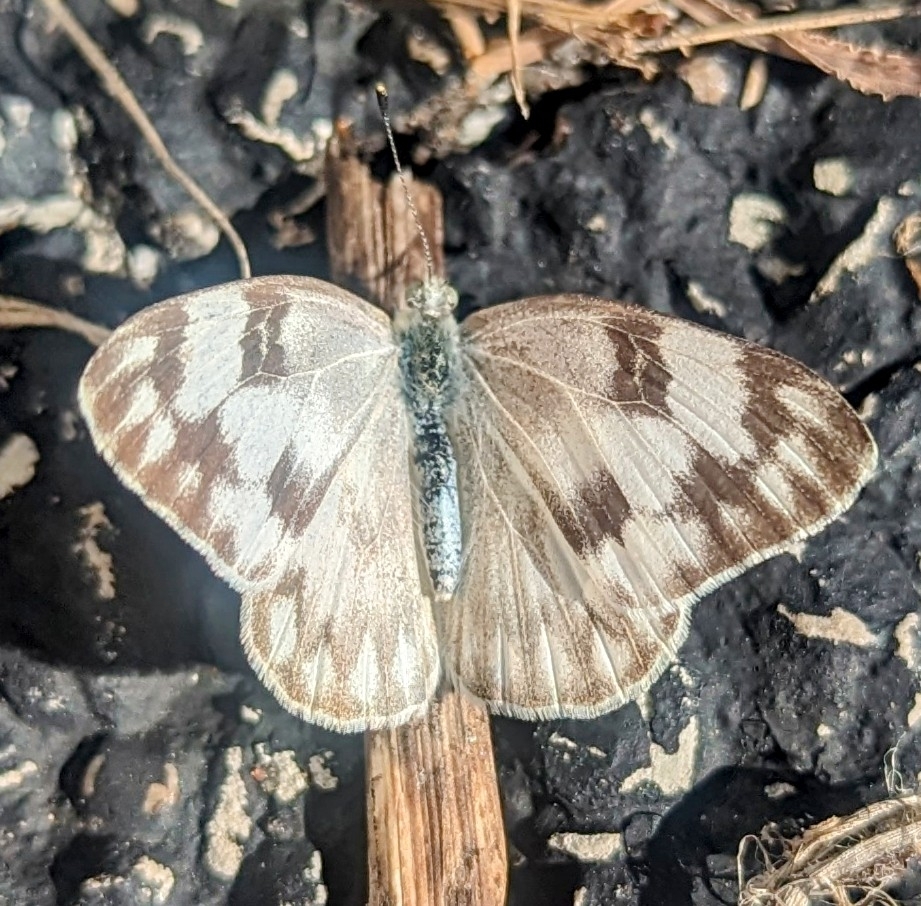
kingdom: Animalia
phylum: Arthropoda
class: Insecta
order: Lepidoptera
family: Pieridae
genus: Pontia
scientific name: Pontia protodice
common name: Checkered white
